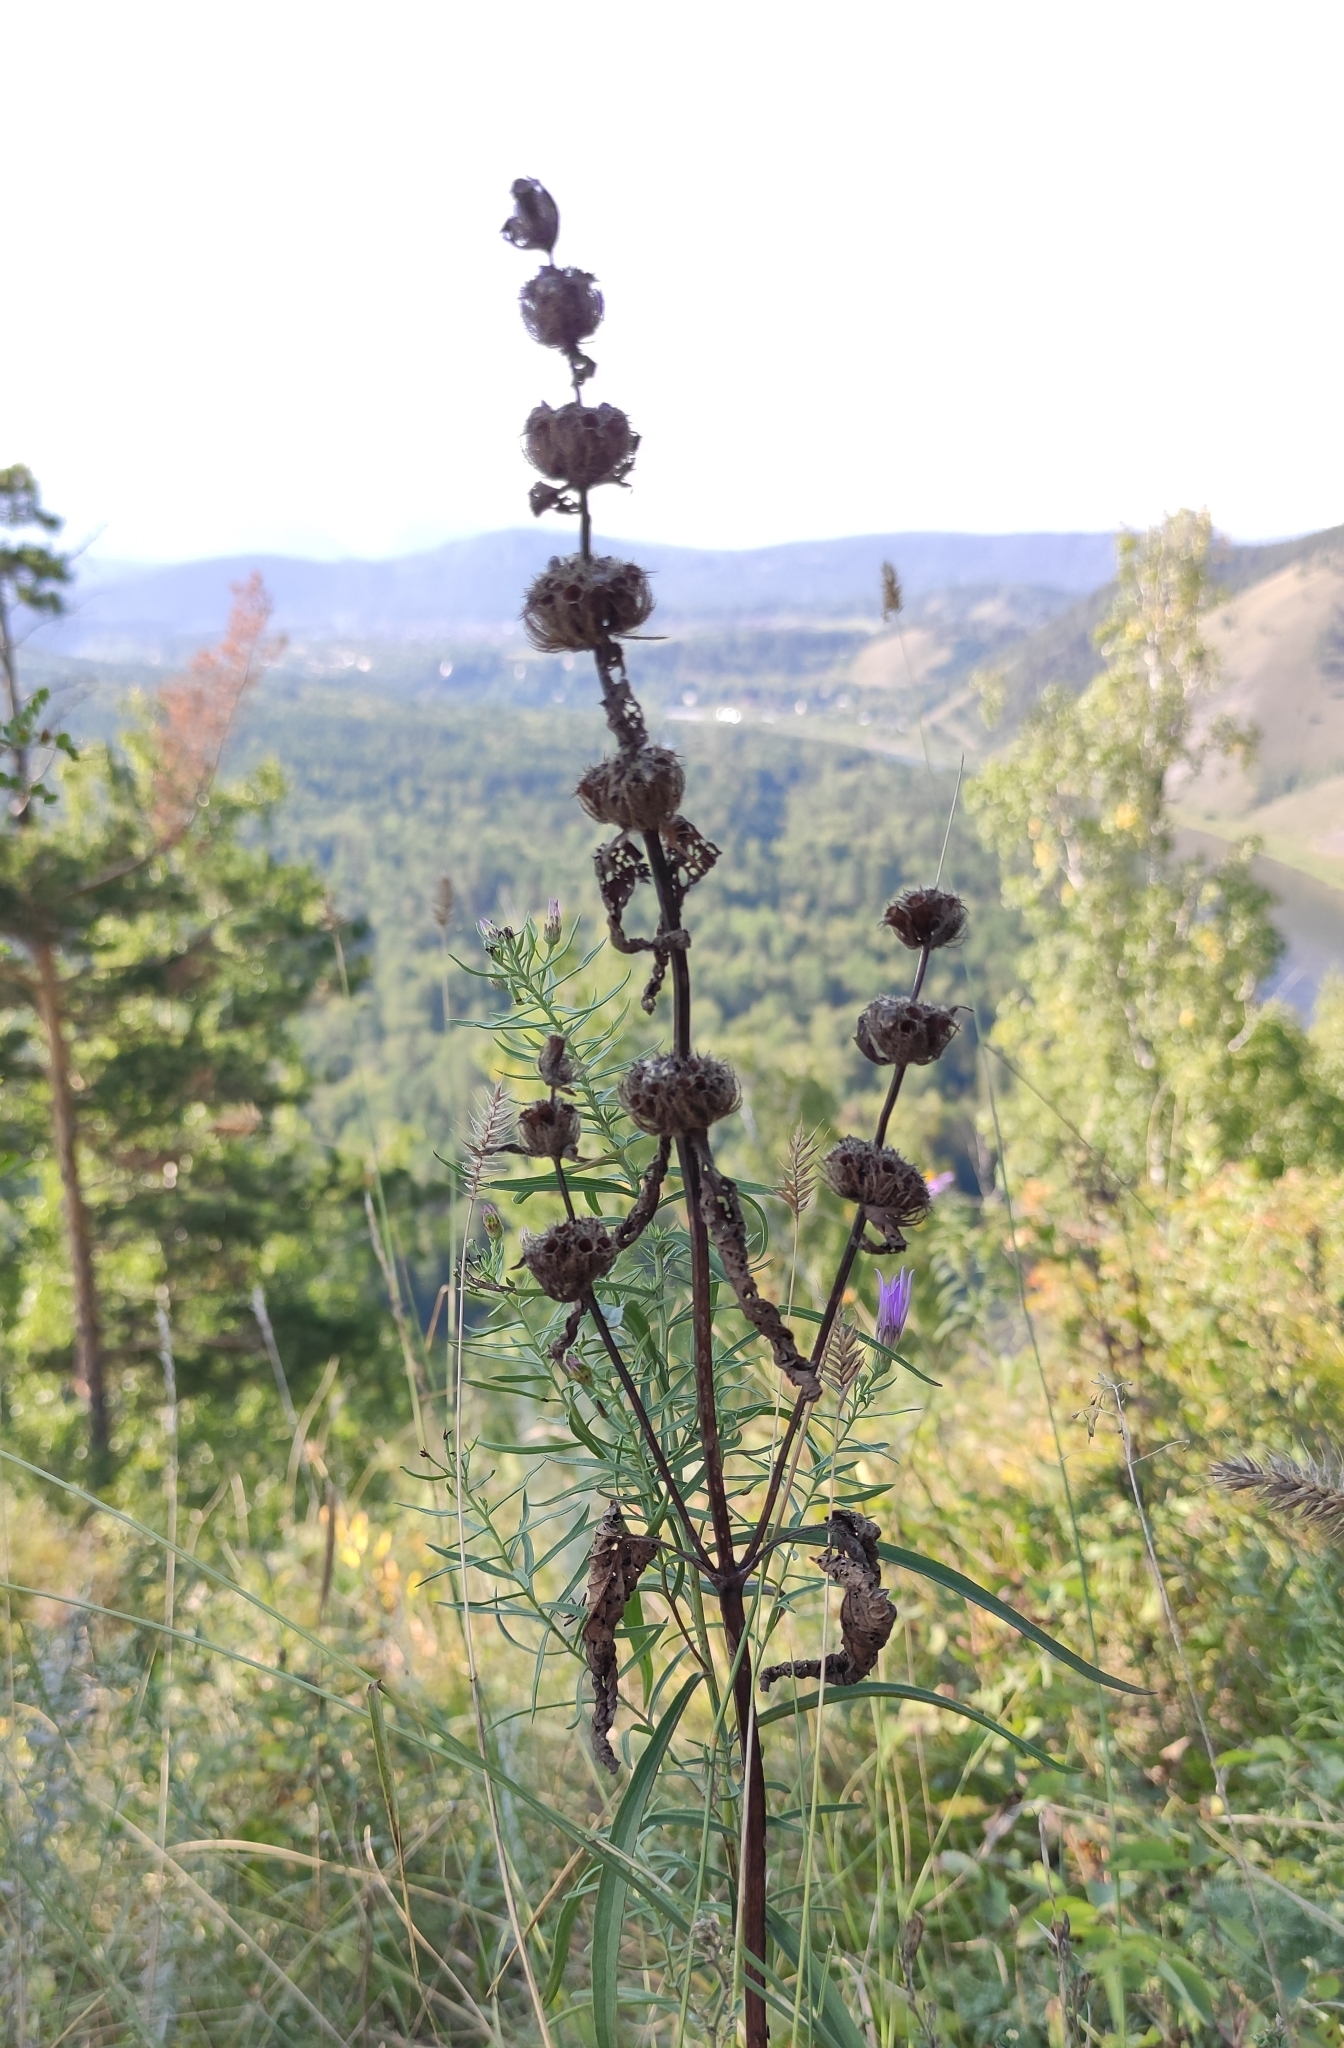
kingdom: Plantae
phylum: Tracheophyta
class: Magnoliopsida
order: Lamiales
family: Lamiaceae
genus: Phlomoides
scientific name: Phlomoides tuberosa
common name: Tuberous jerusalem sage
